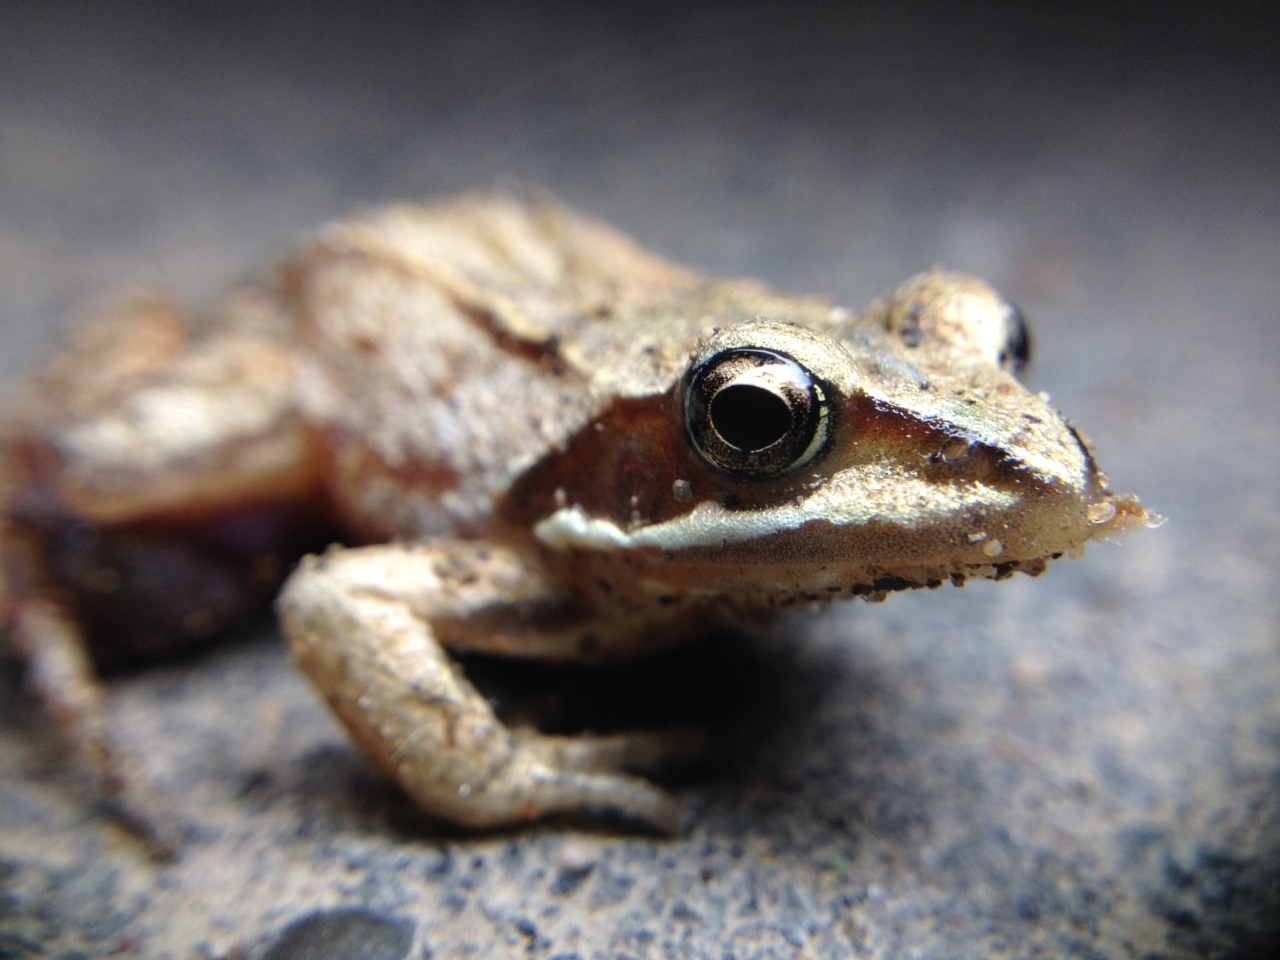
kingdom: Animalia
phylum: Chordata
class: Amphibia
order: Anura
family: Ranidae
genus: Rana
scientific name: Rana arvalis
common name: Moor frog
